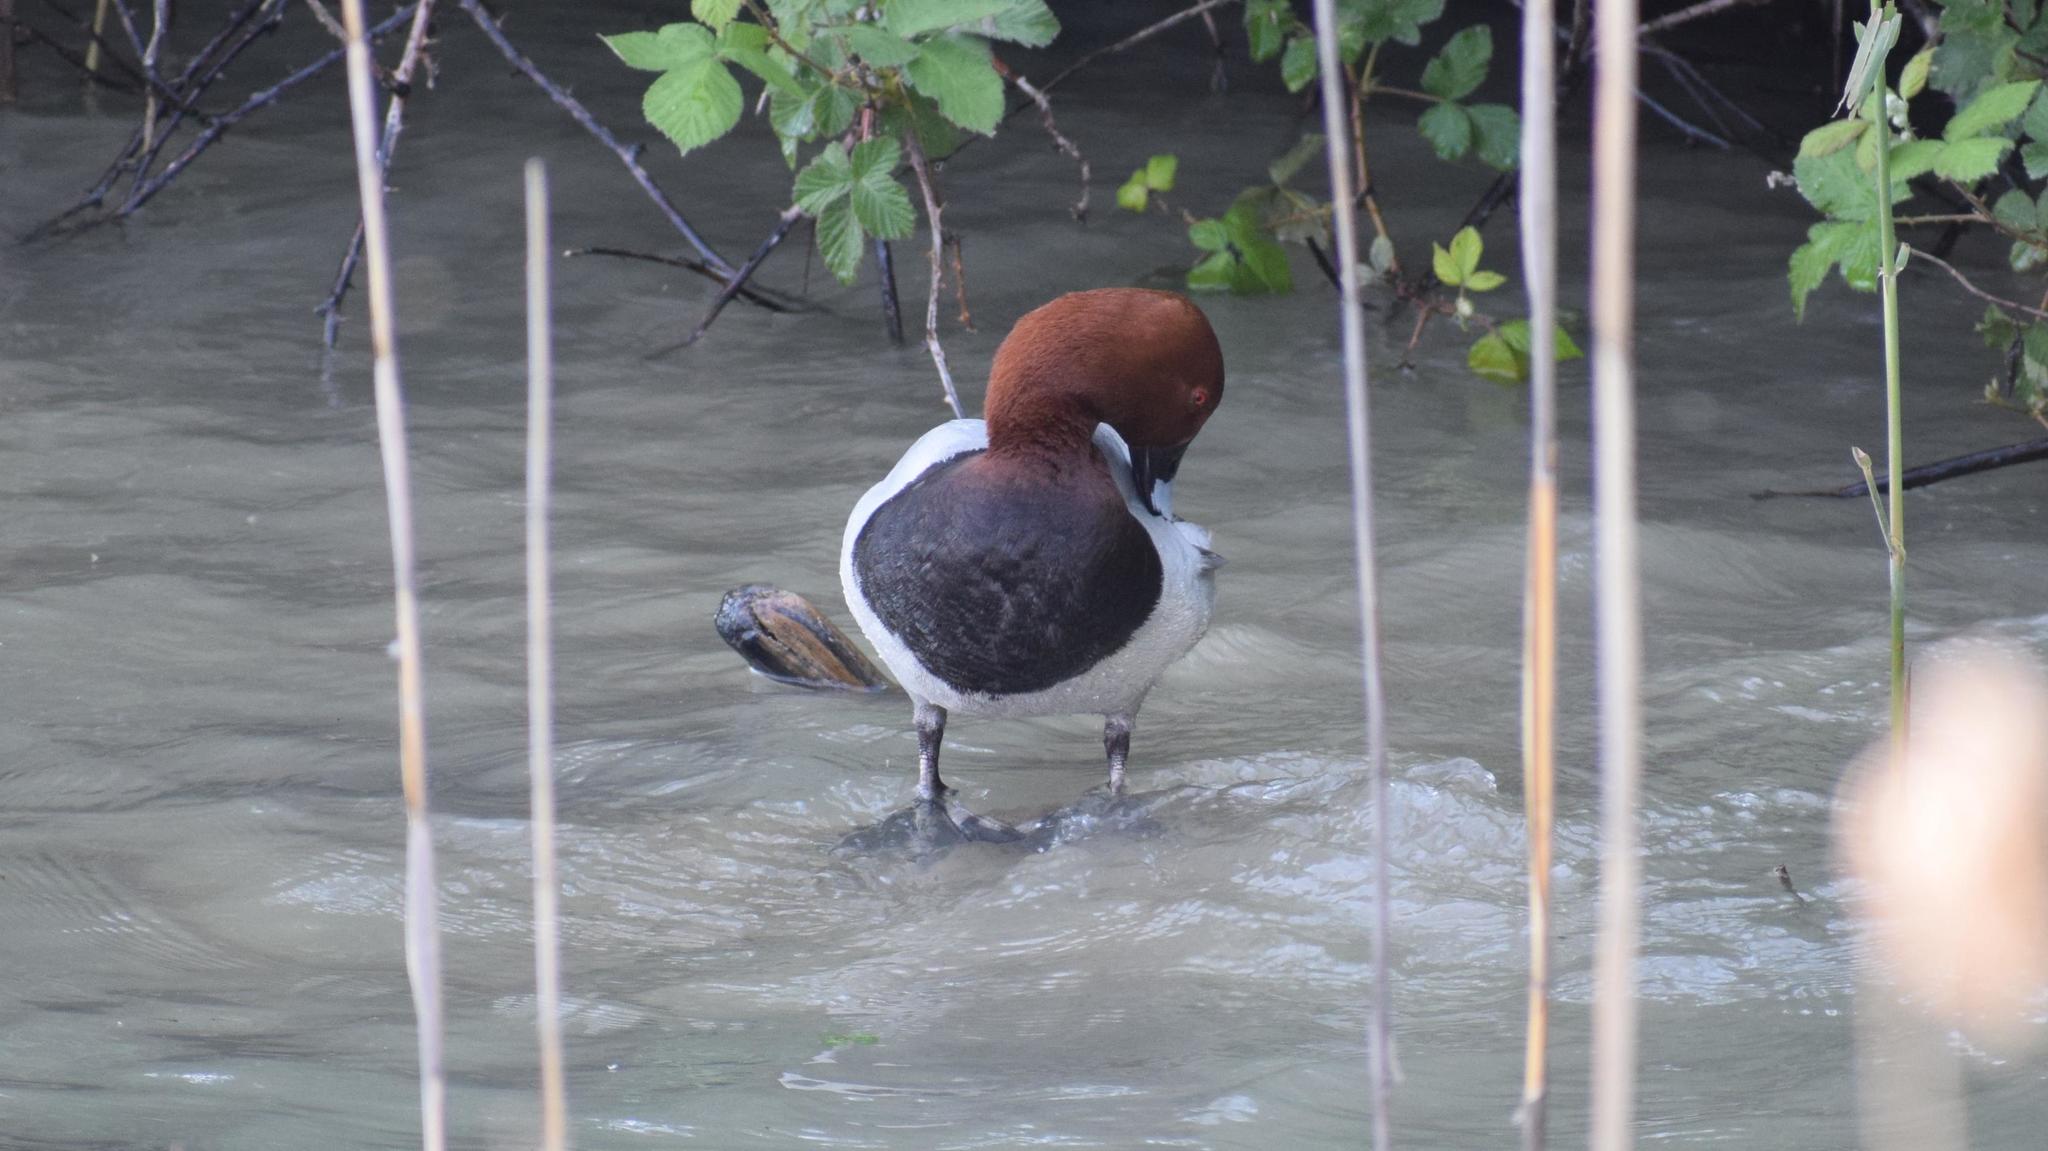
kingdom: Animalia
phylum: Chordata
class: Aves
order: Anseriformes
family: Anatidae
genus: Aythya
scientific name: Aythya ferina
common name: Common pochard
